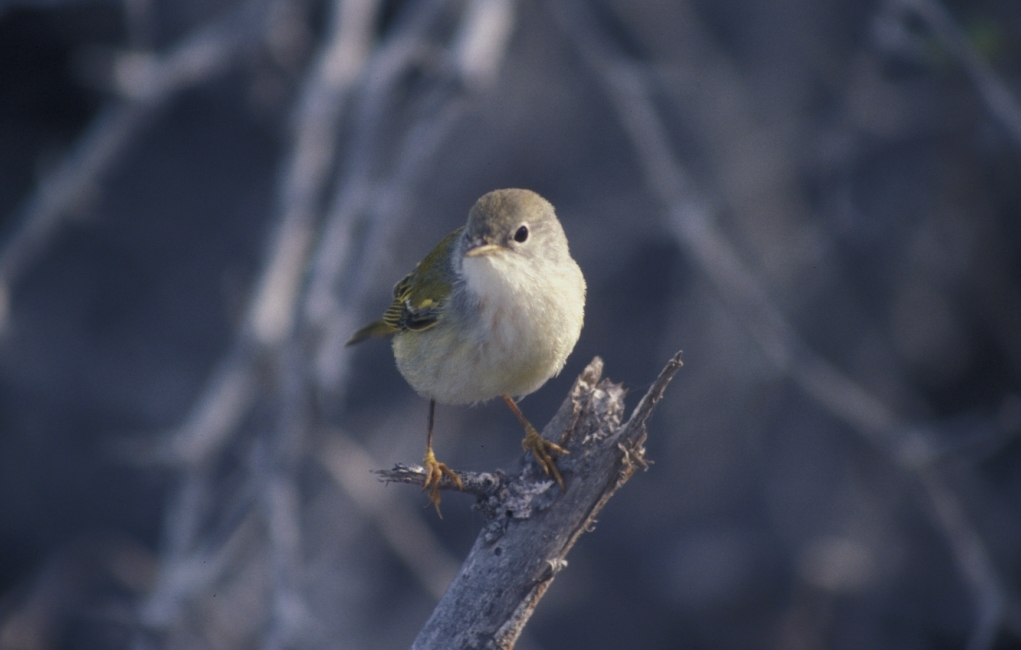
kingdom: Animalia
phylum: Chordata
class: Aves
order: Passeriformes
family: Parulidae
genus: Setophaga
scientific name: Setophaga petechia
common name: Yellow warbler
